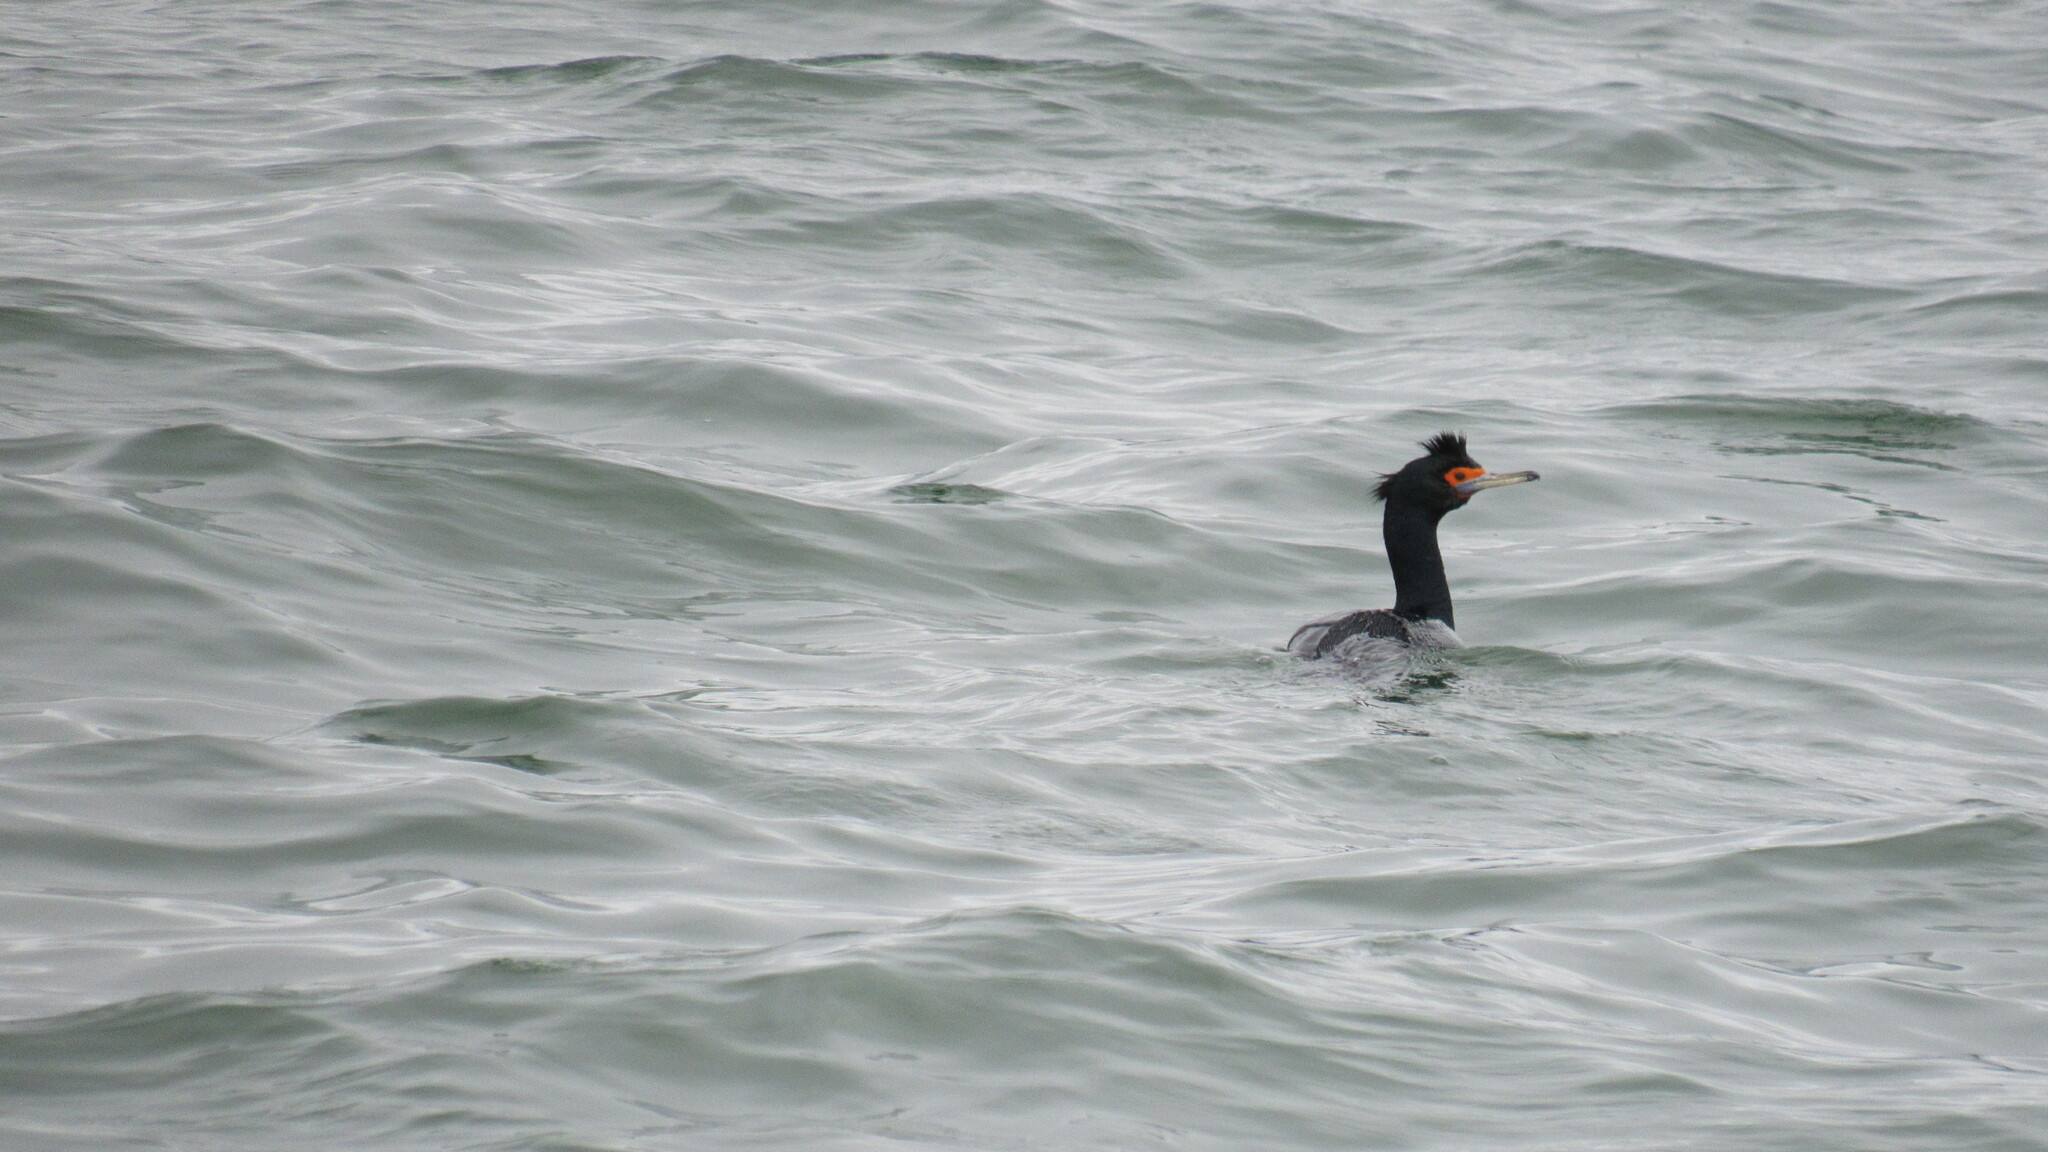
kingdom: Animalia
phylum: Chordata
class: Aves
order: Suliformes
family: Phalacrocoracidae
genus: Phalacrocorax
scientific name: Phalacrocorax urile
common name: Red-faced cormorant
